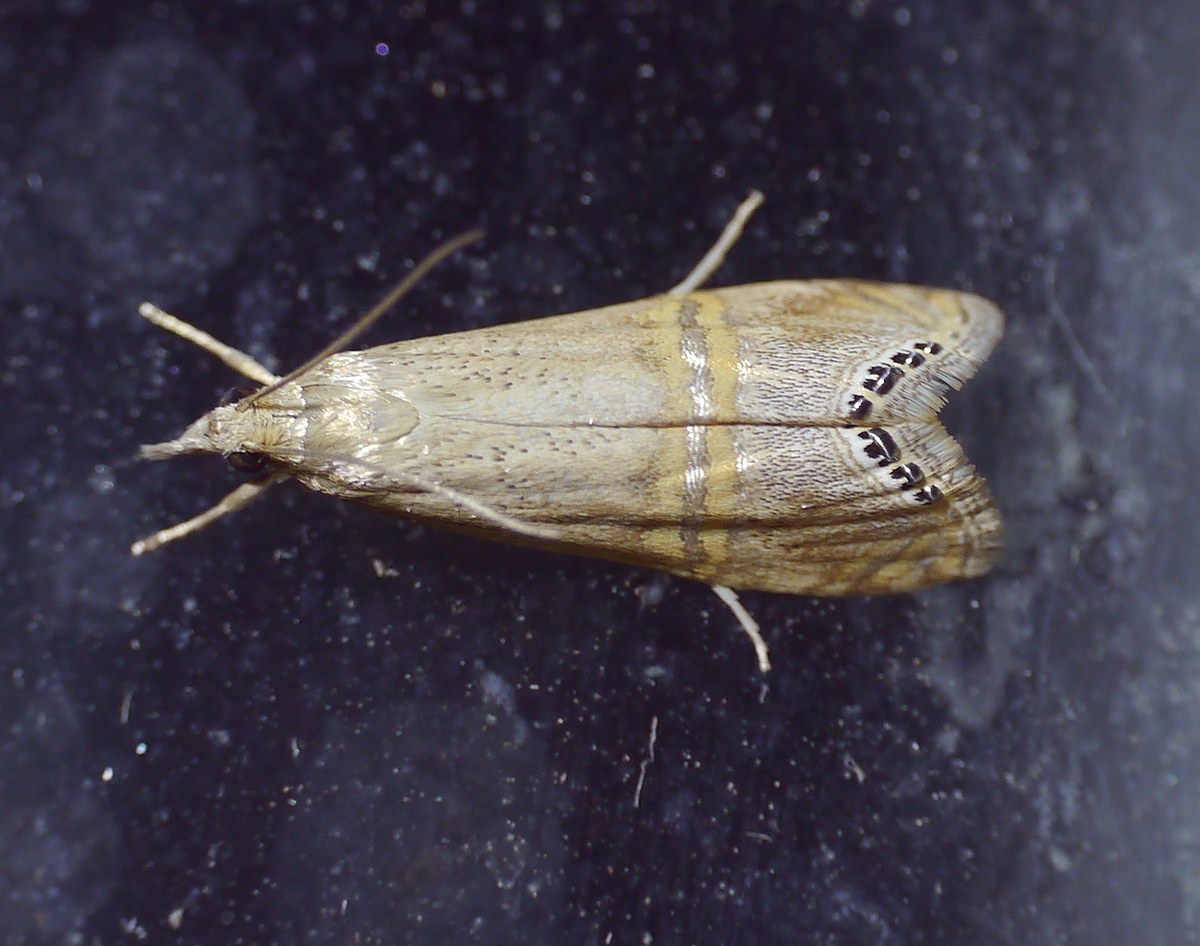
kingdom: Animalia
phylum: Arthropoda
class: Insecta
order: Lepidoptera
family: Crambidae
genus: Euchromius
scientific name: Euchromius ocellea
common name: Necklace veneer moth
